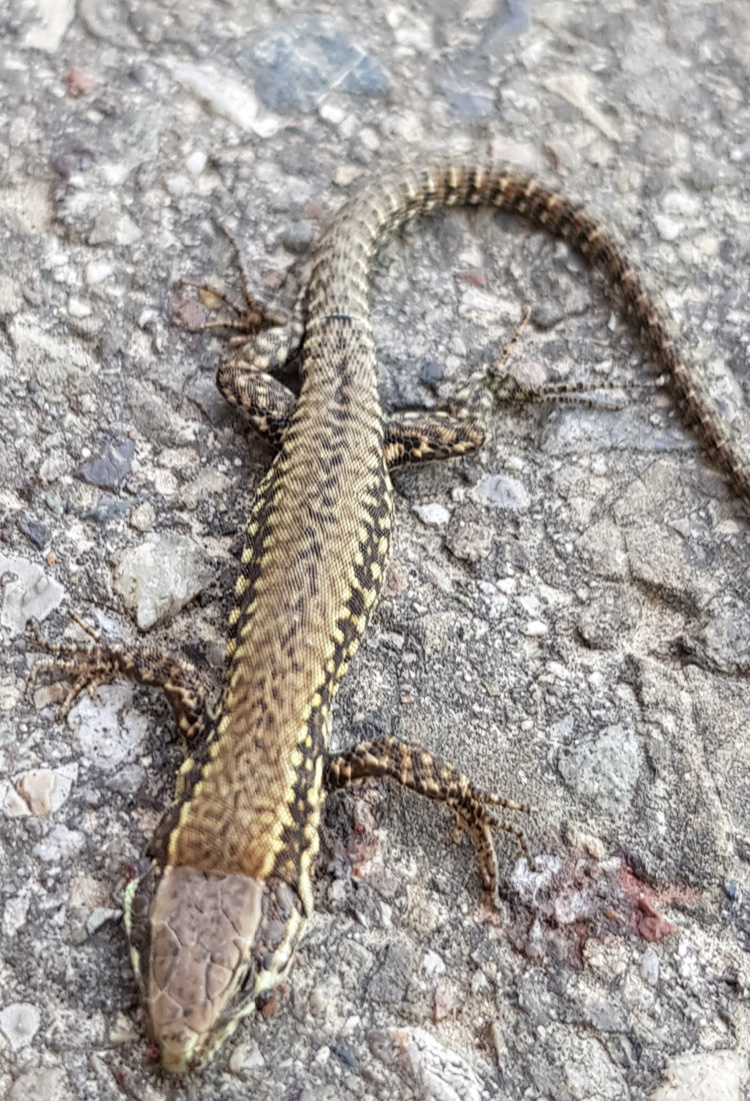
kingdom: Animalia
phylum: Chordata
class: Squamata
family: Lacertidae
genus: Podarcis
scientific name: Podarcis muralis
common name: Common wall lizard
